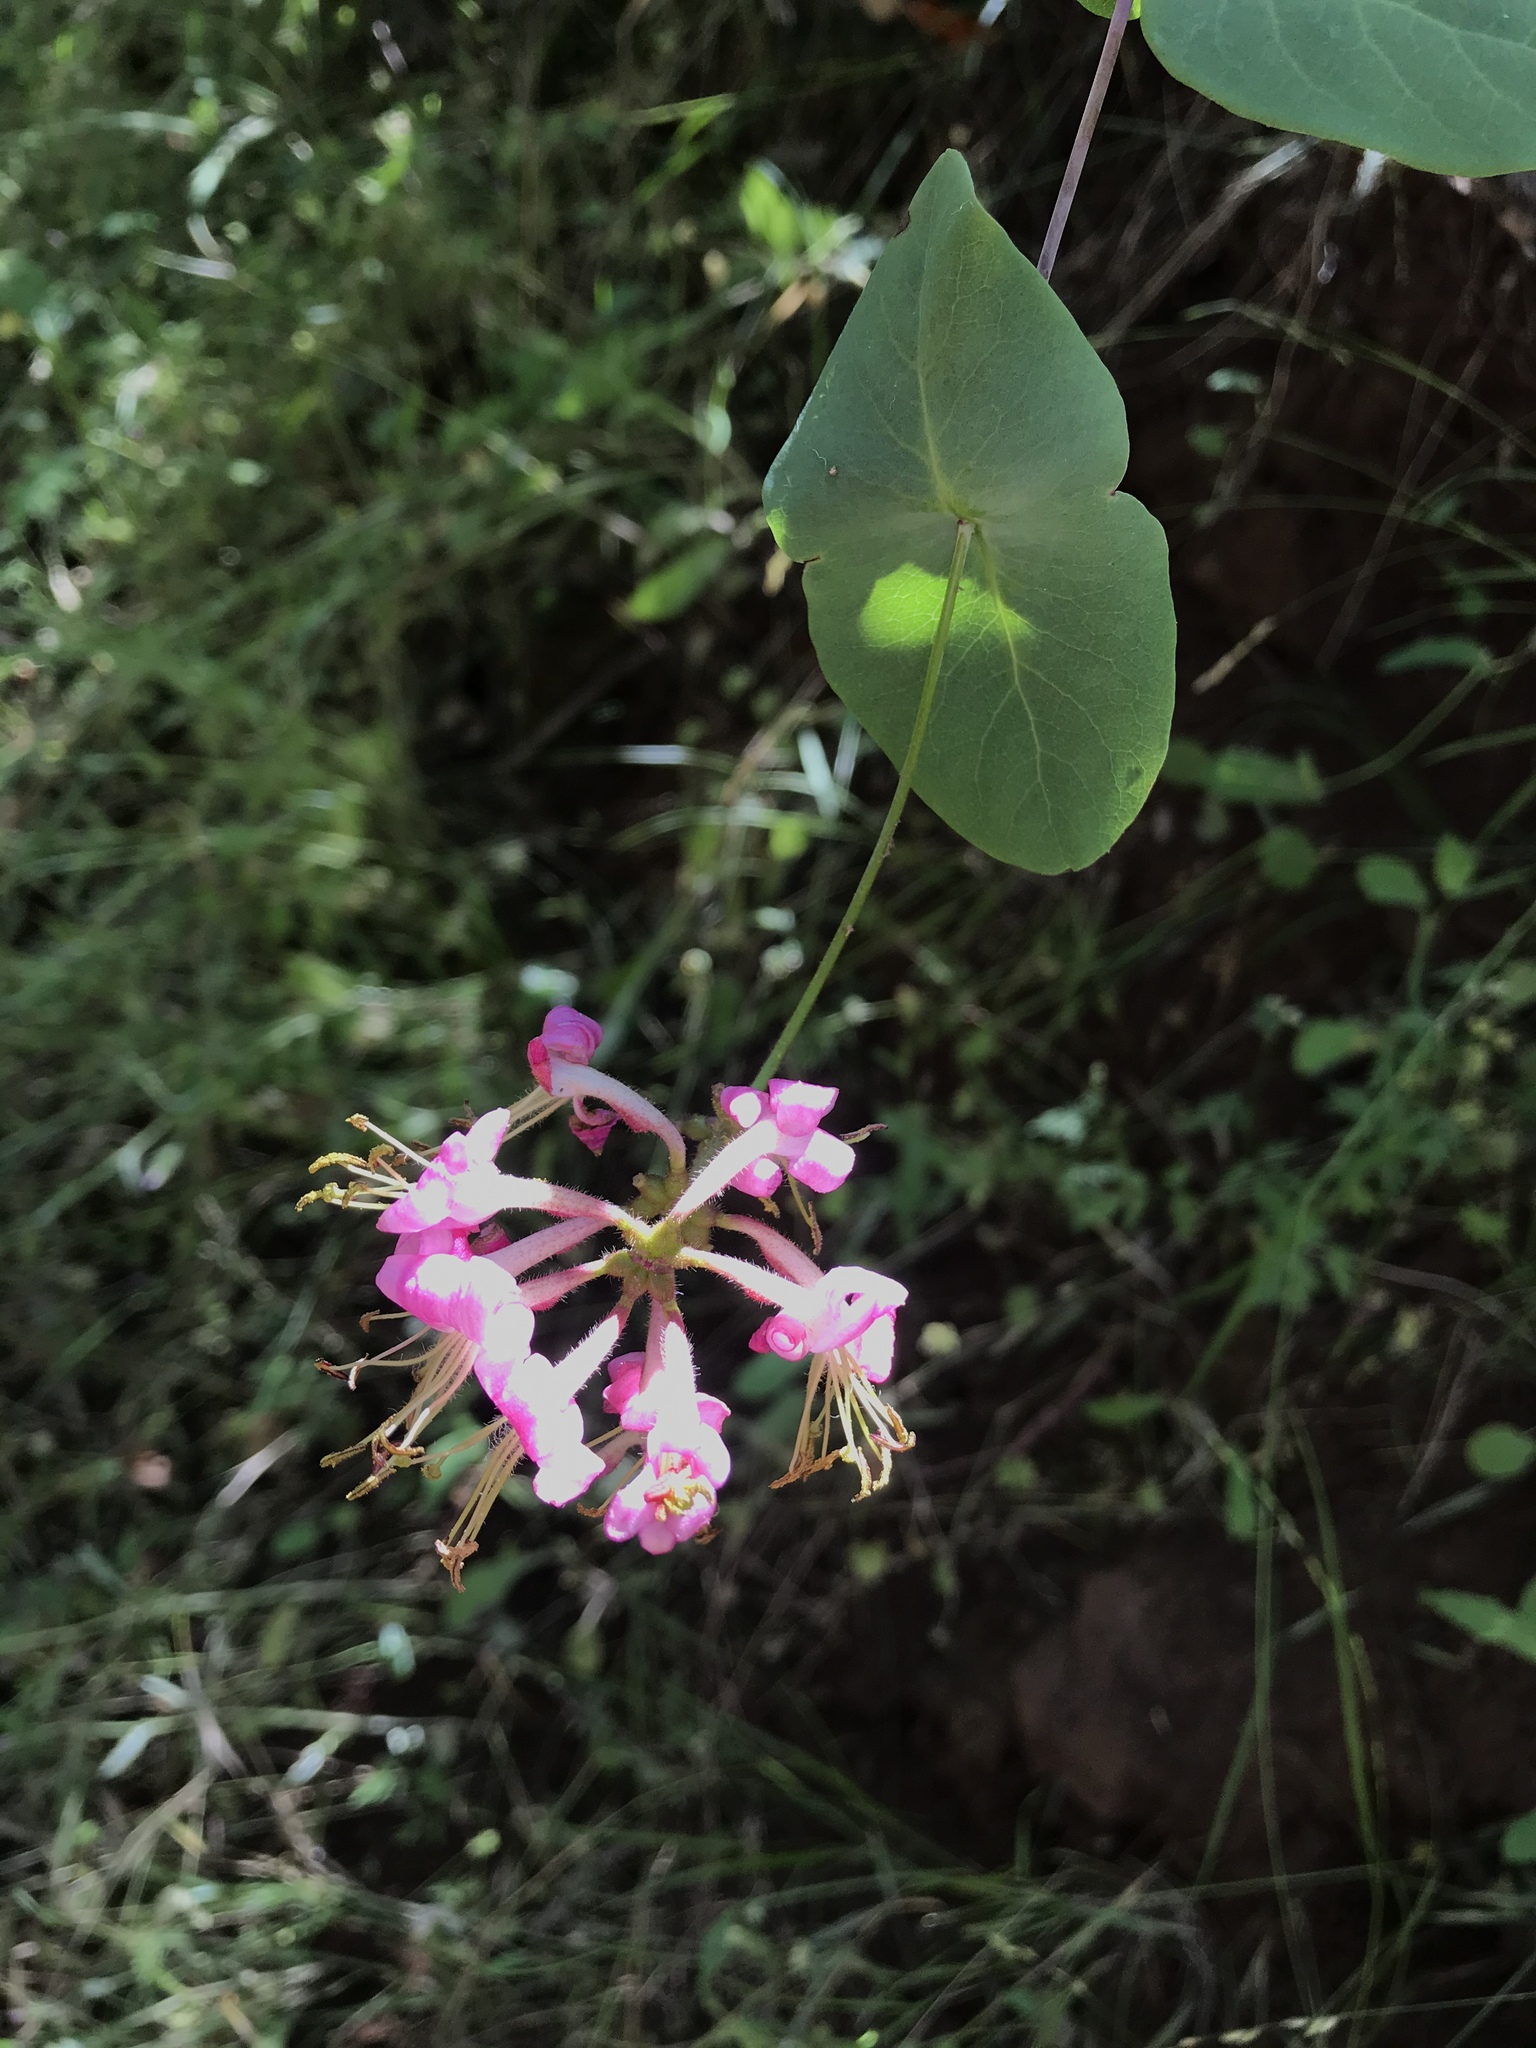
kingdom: Plantae
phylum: Tracheophyta
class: Magnoliopsida
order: Dipsacales
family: Caprifoliaceae
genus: Lonicera
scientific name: Lonicera hispidula
